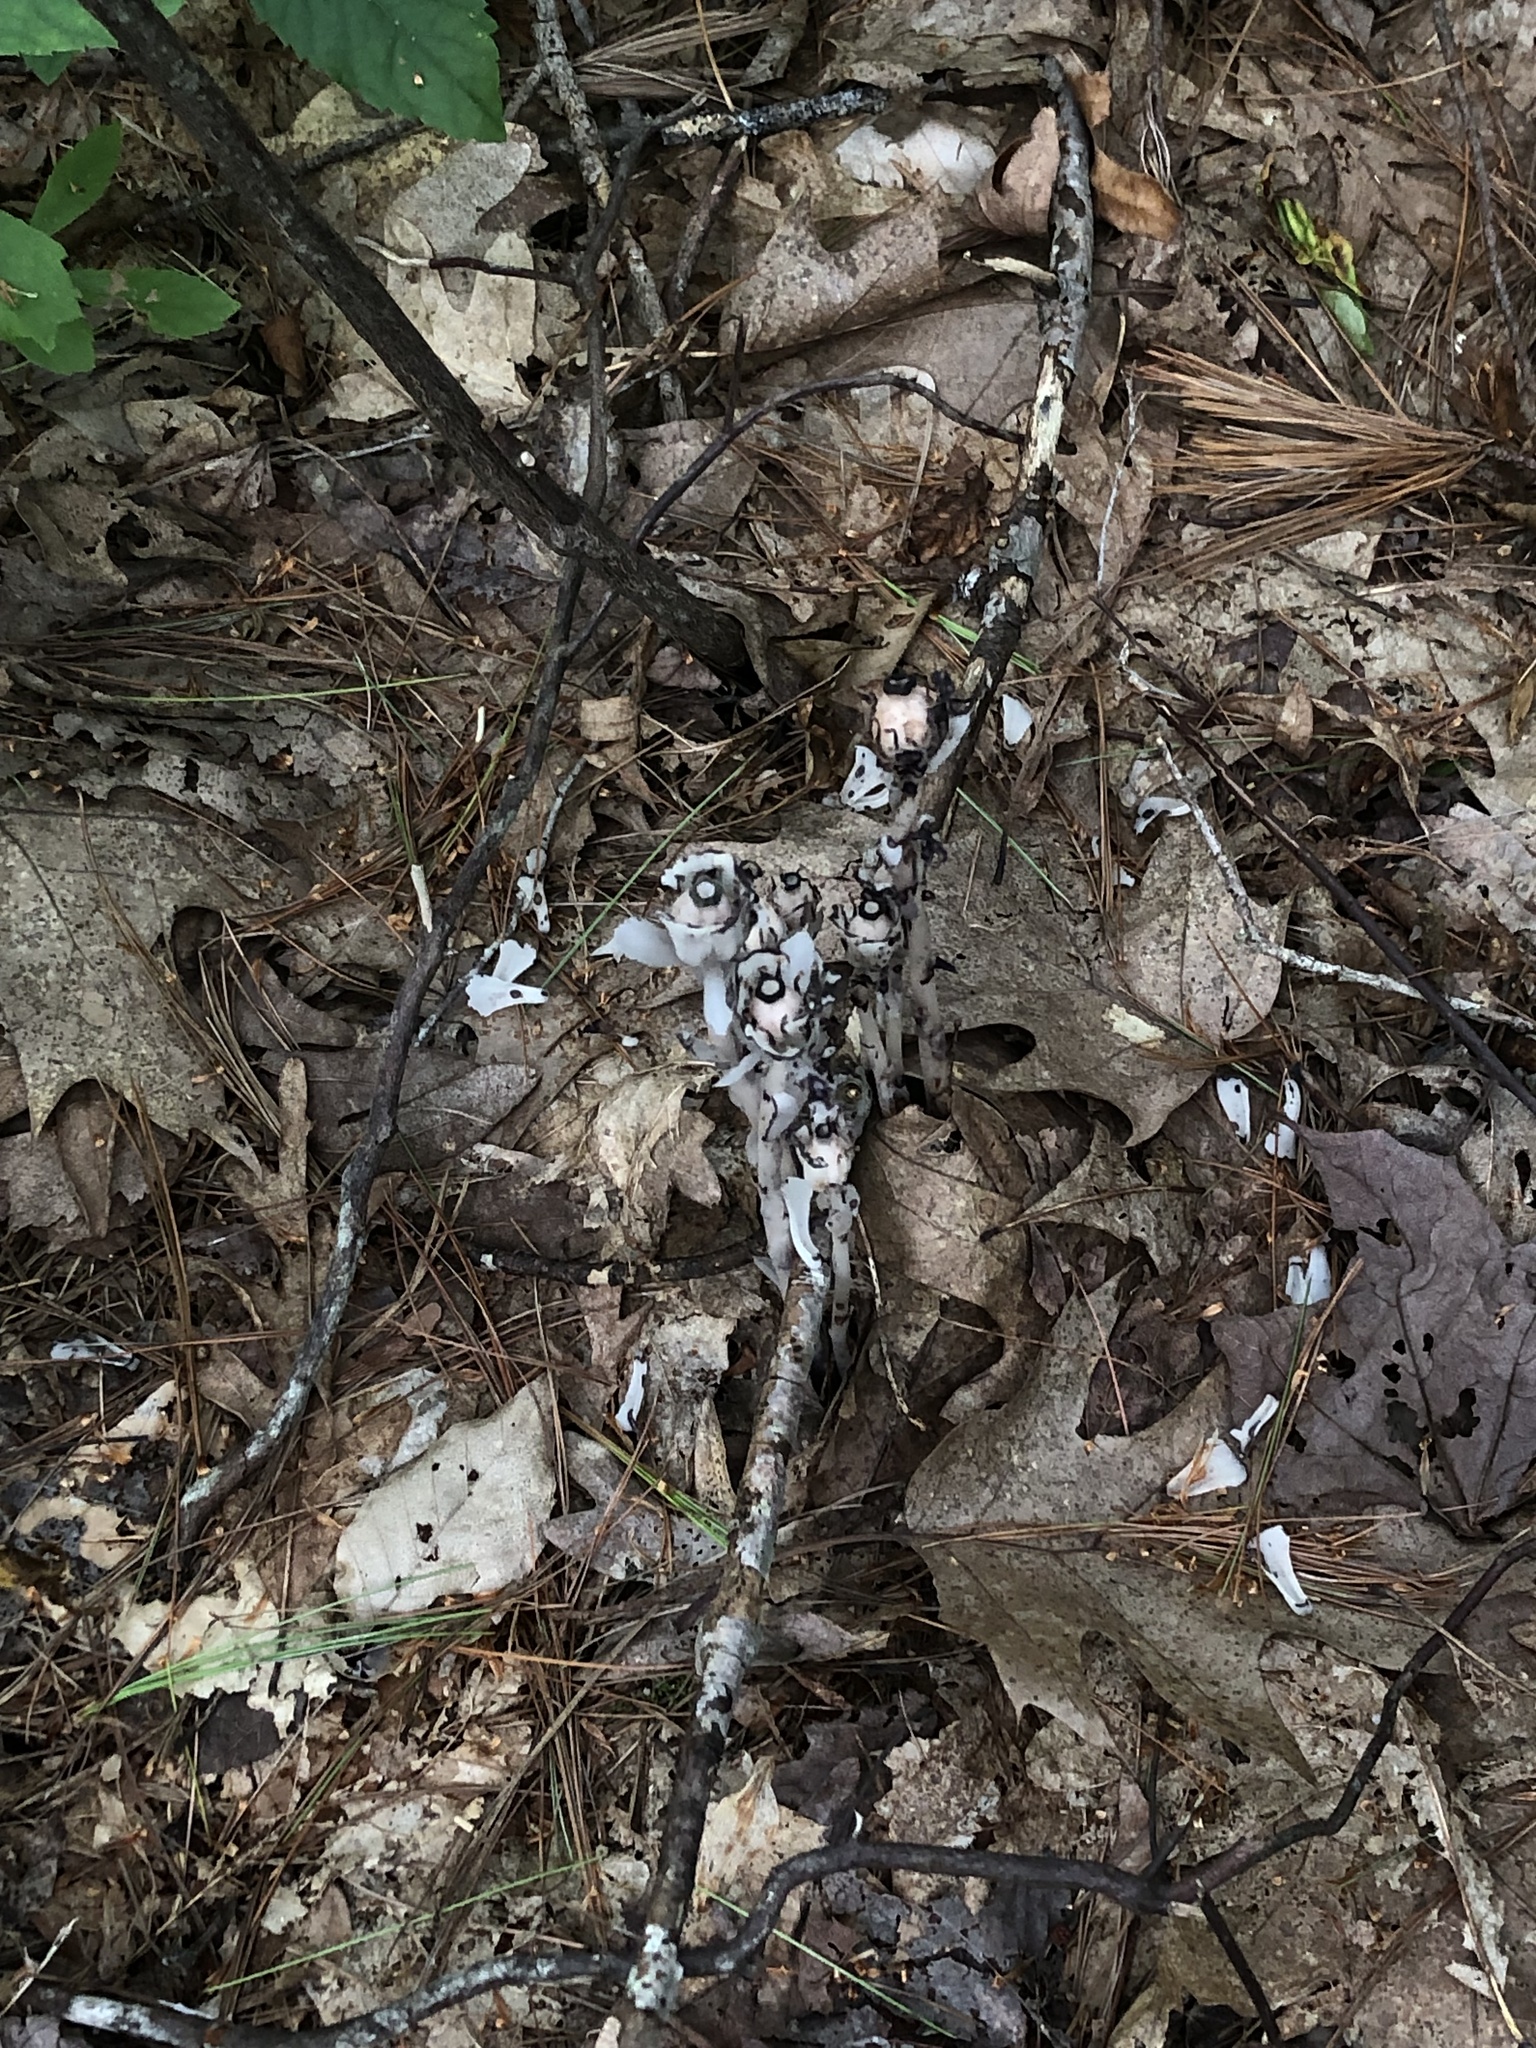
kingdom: Plantae
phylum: Tracheophyta
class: Magnoliopsida
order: Ericales
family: Ericaceae
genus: Monotropa
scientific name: Monotropa uniflora
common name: Convulsion root
